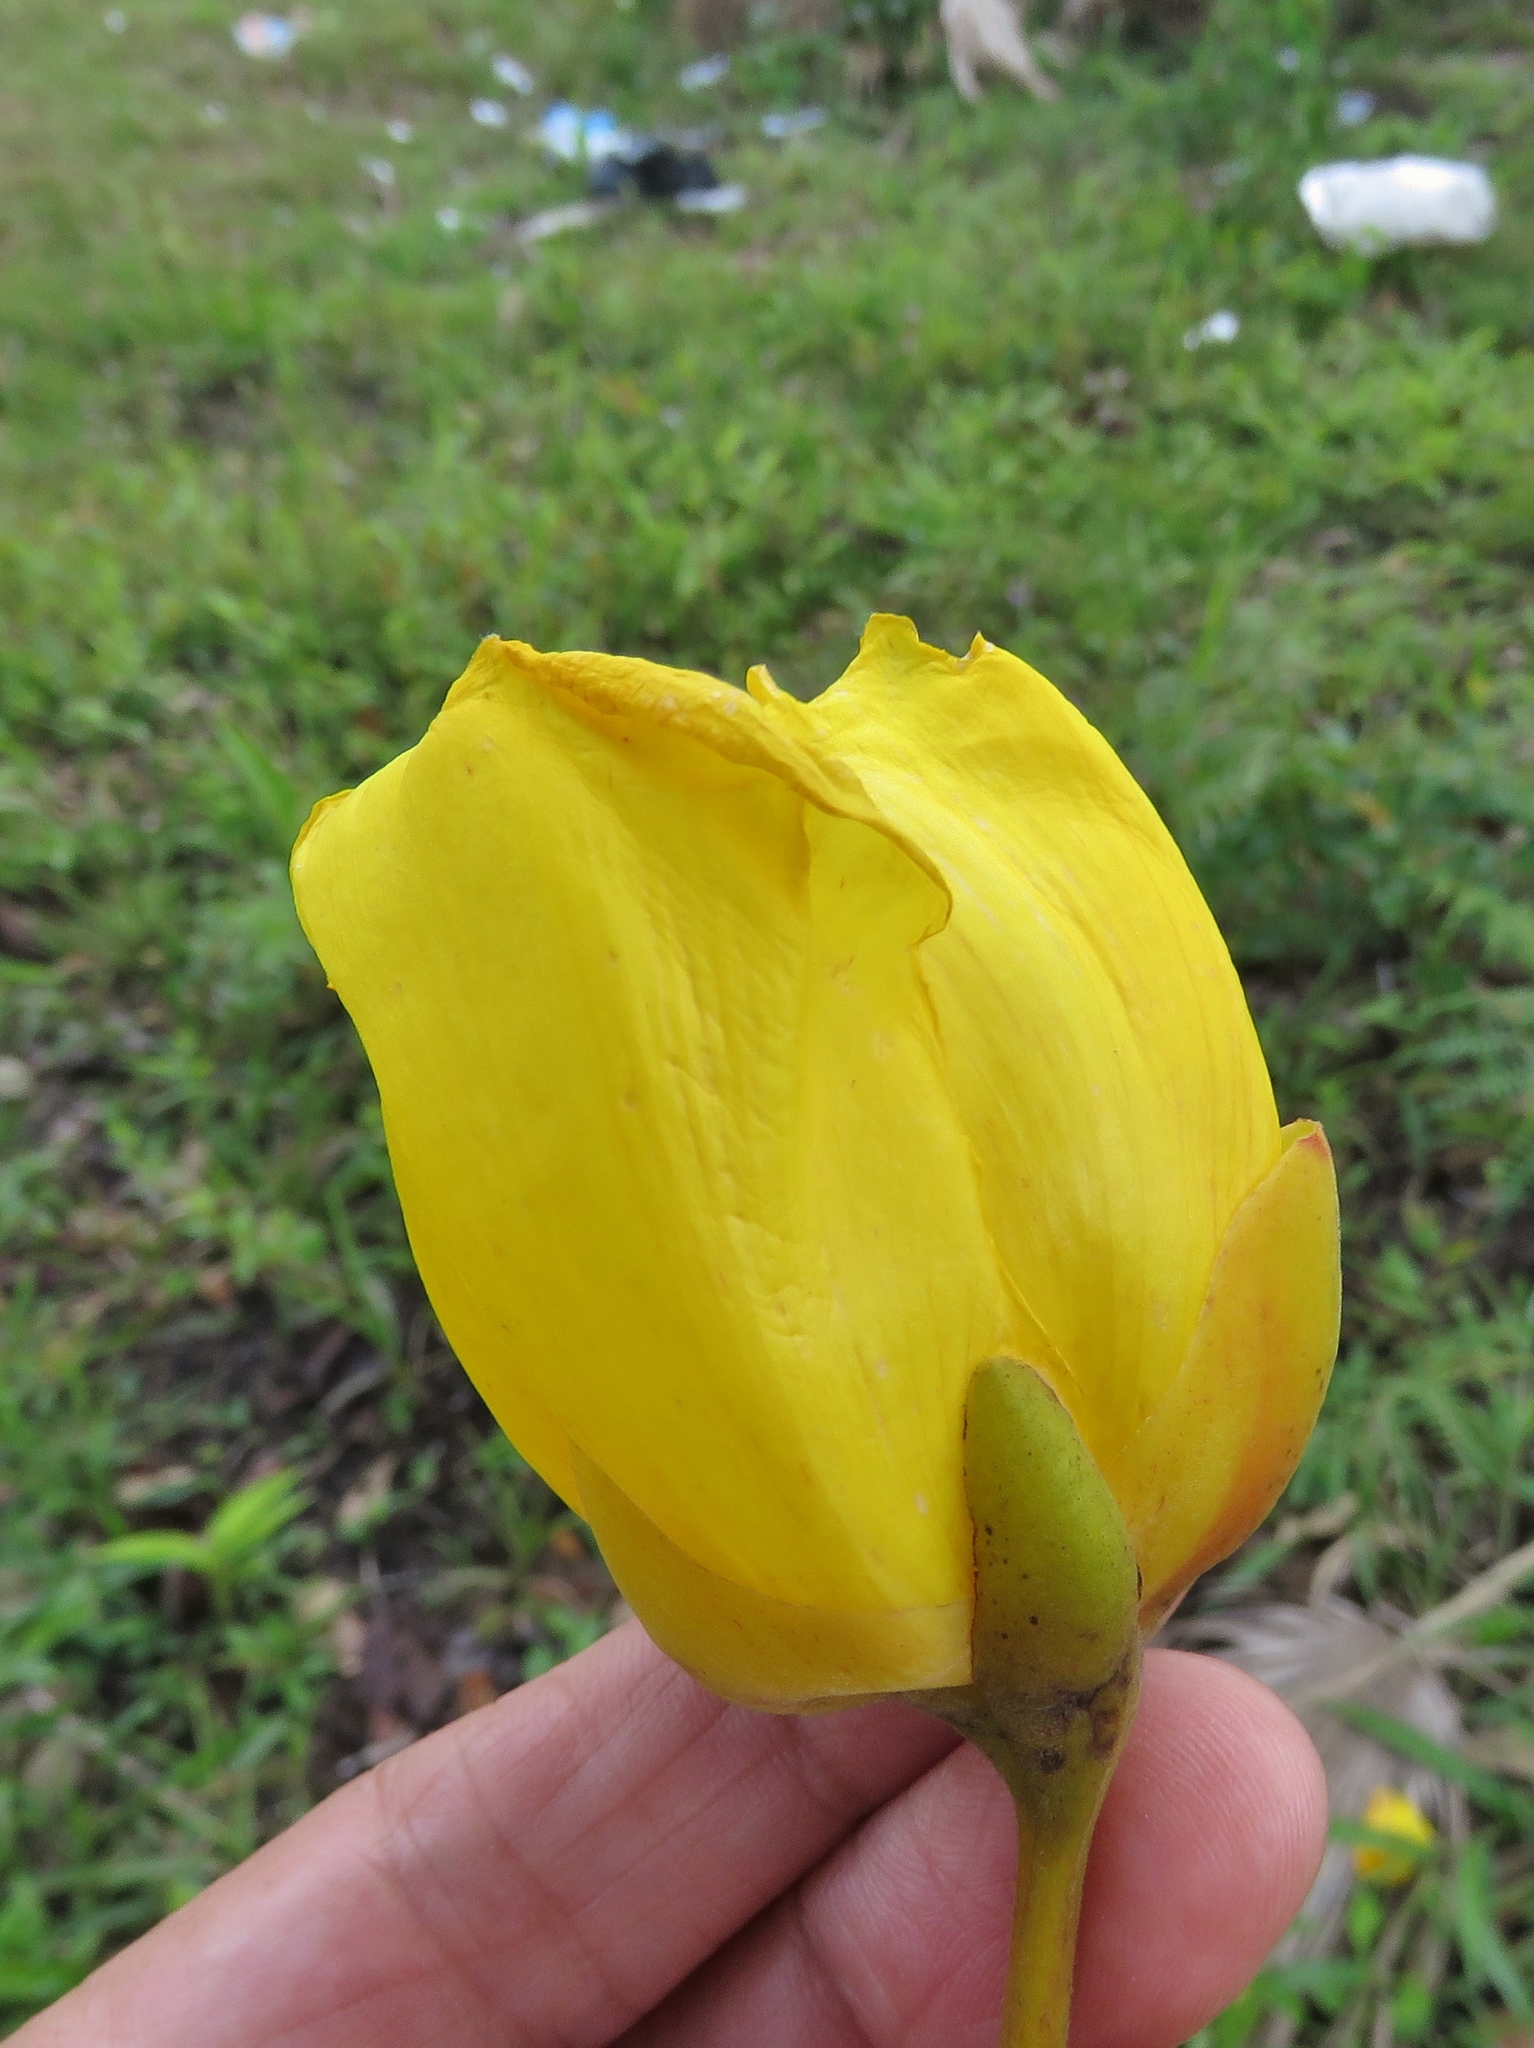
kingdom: Plantae
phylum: Tracheophyta
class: Magnoliopsida
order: Malvales
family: Cochlospermaceae
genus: Cochlospermum
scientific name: Cochlospermum vitifolium
